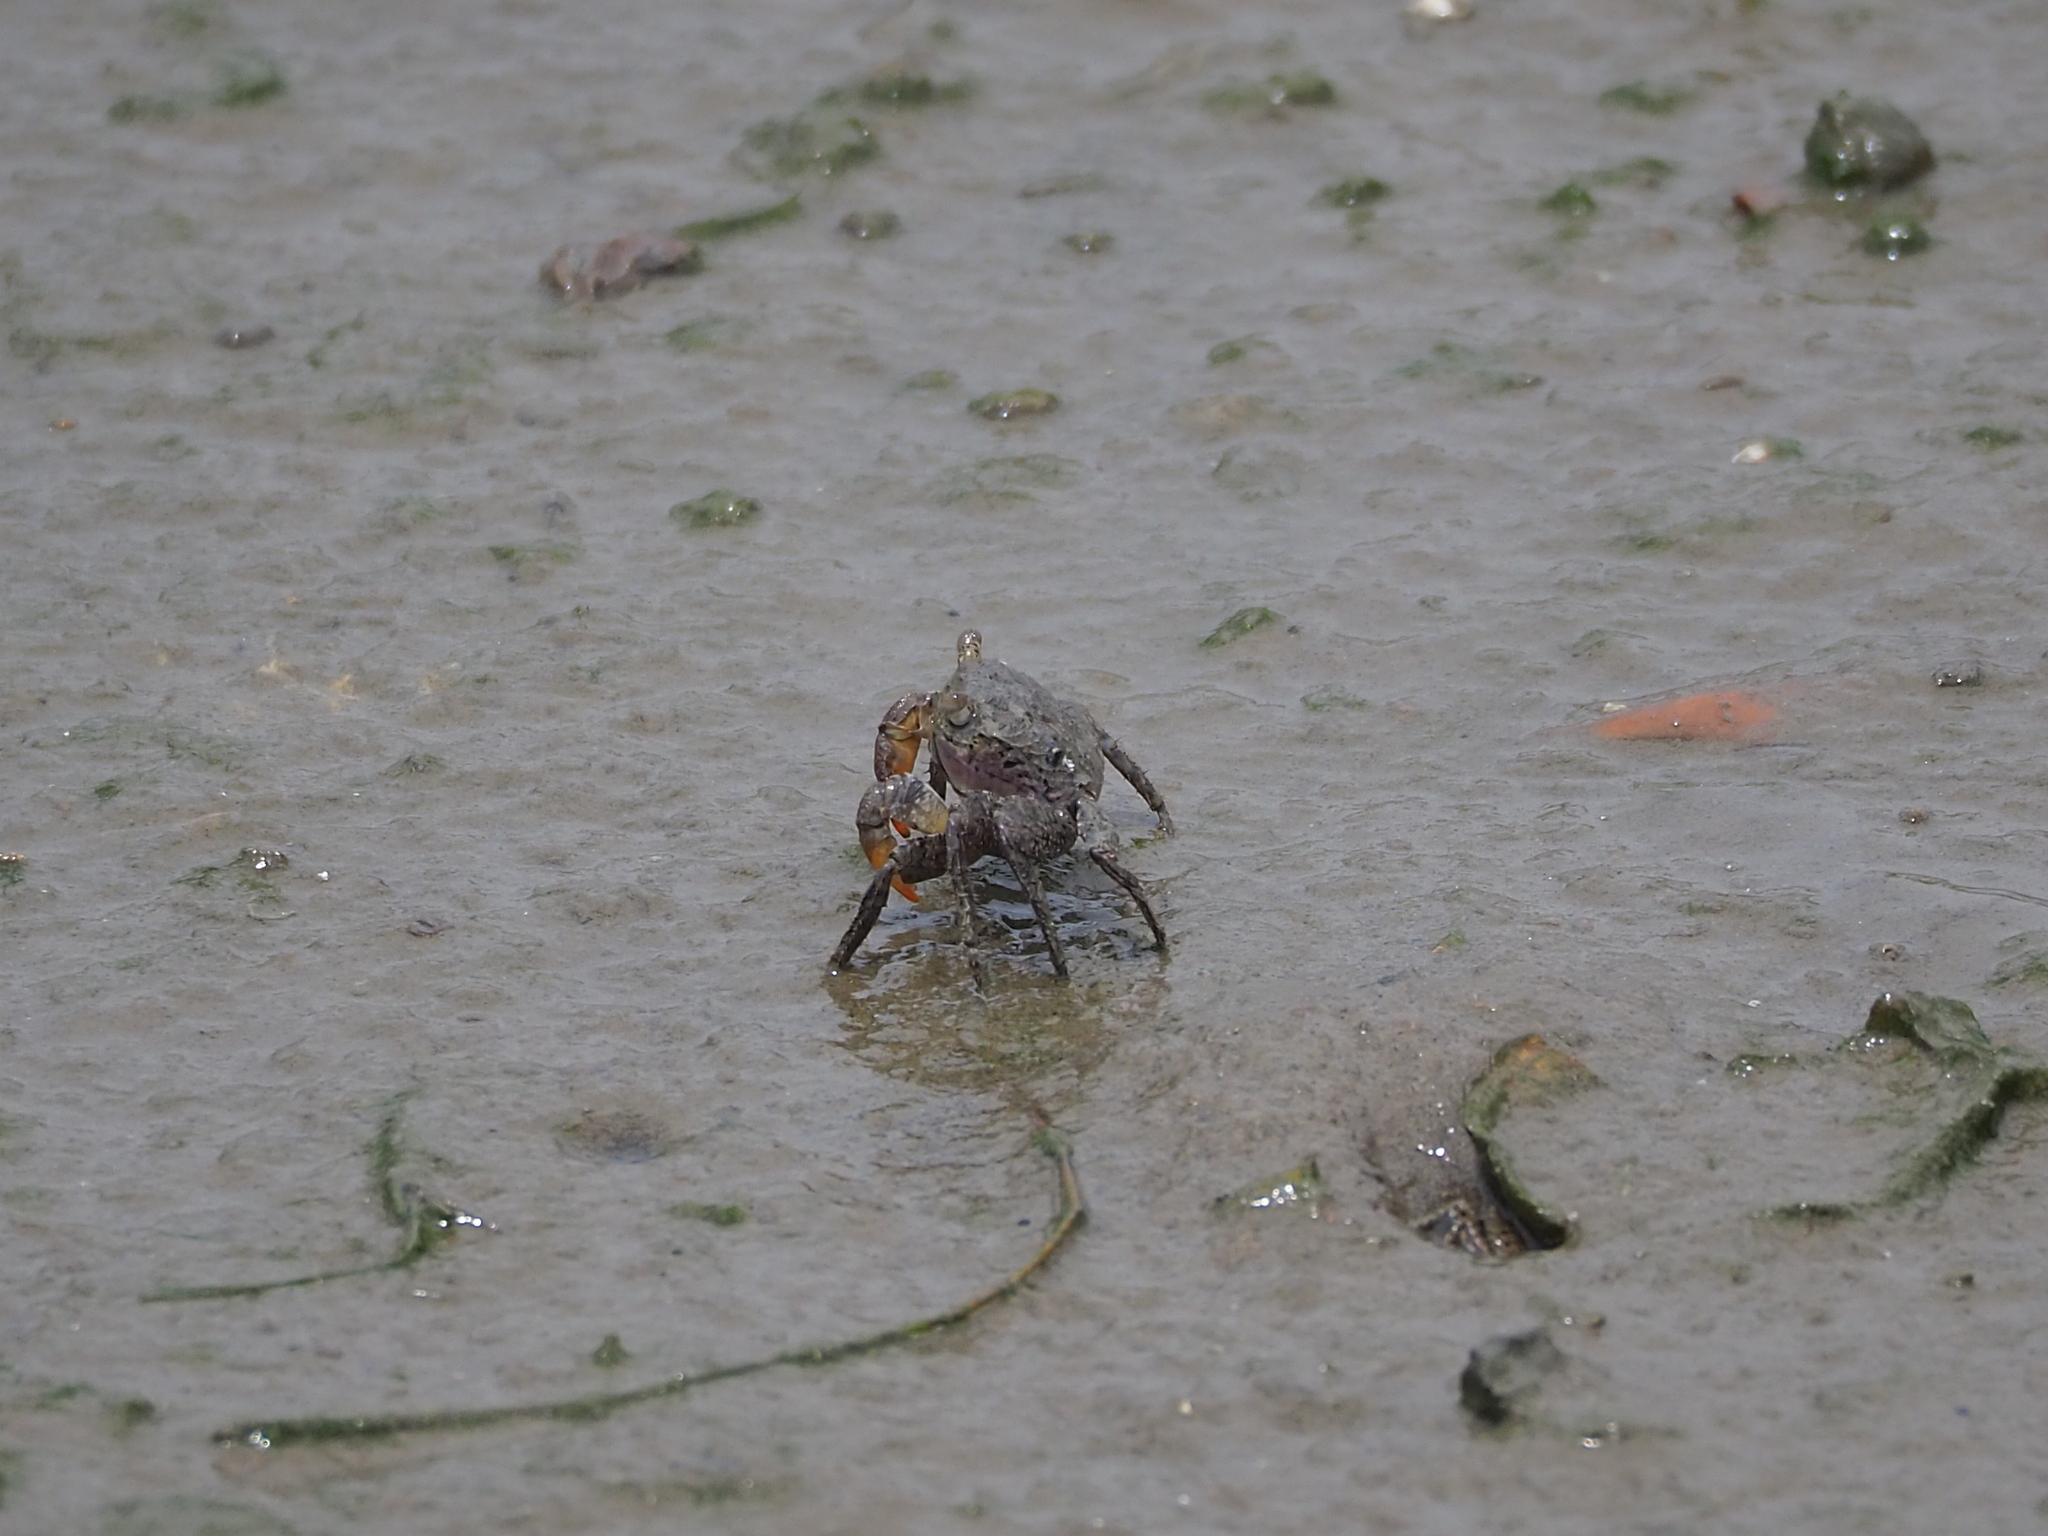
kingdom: Animalia
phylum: Arthropoda
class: Malacostraca
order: Decapoda
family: Sesarmidae
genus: Parasesarma
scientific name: Parasesarma insulare
